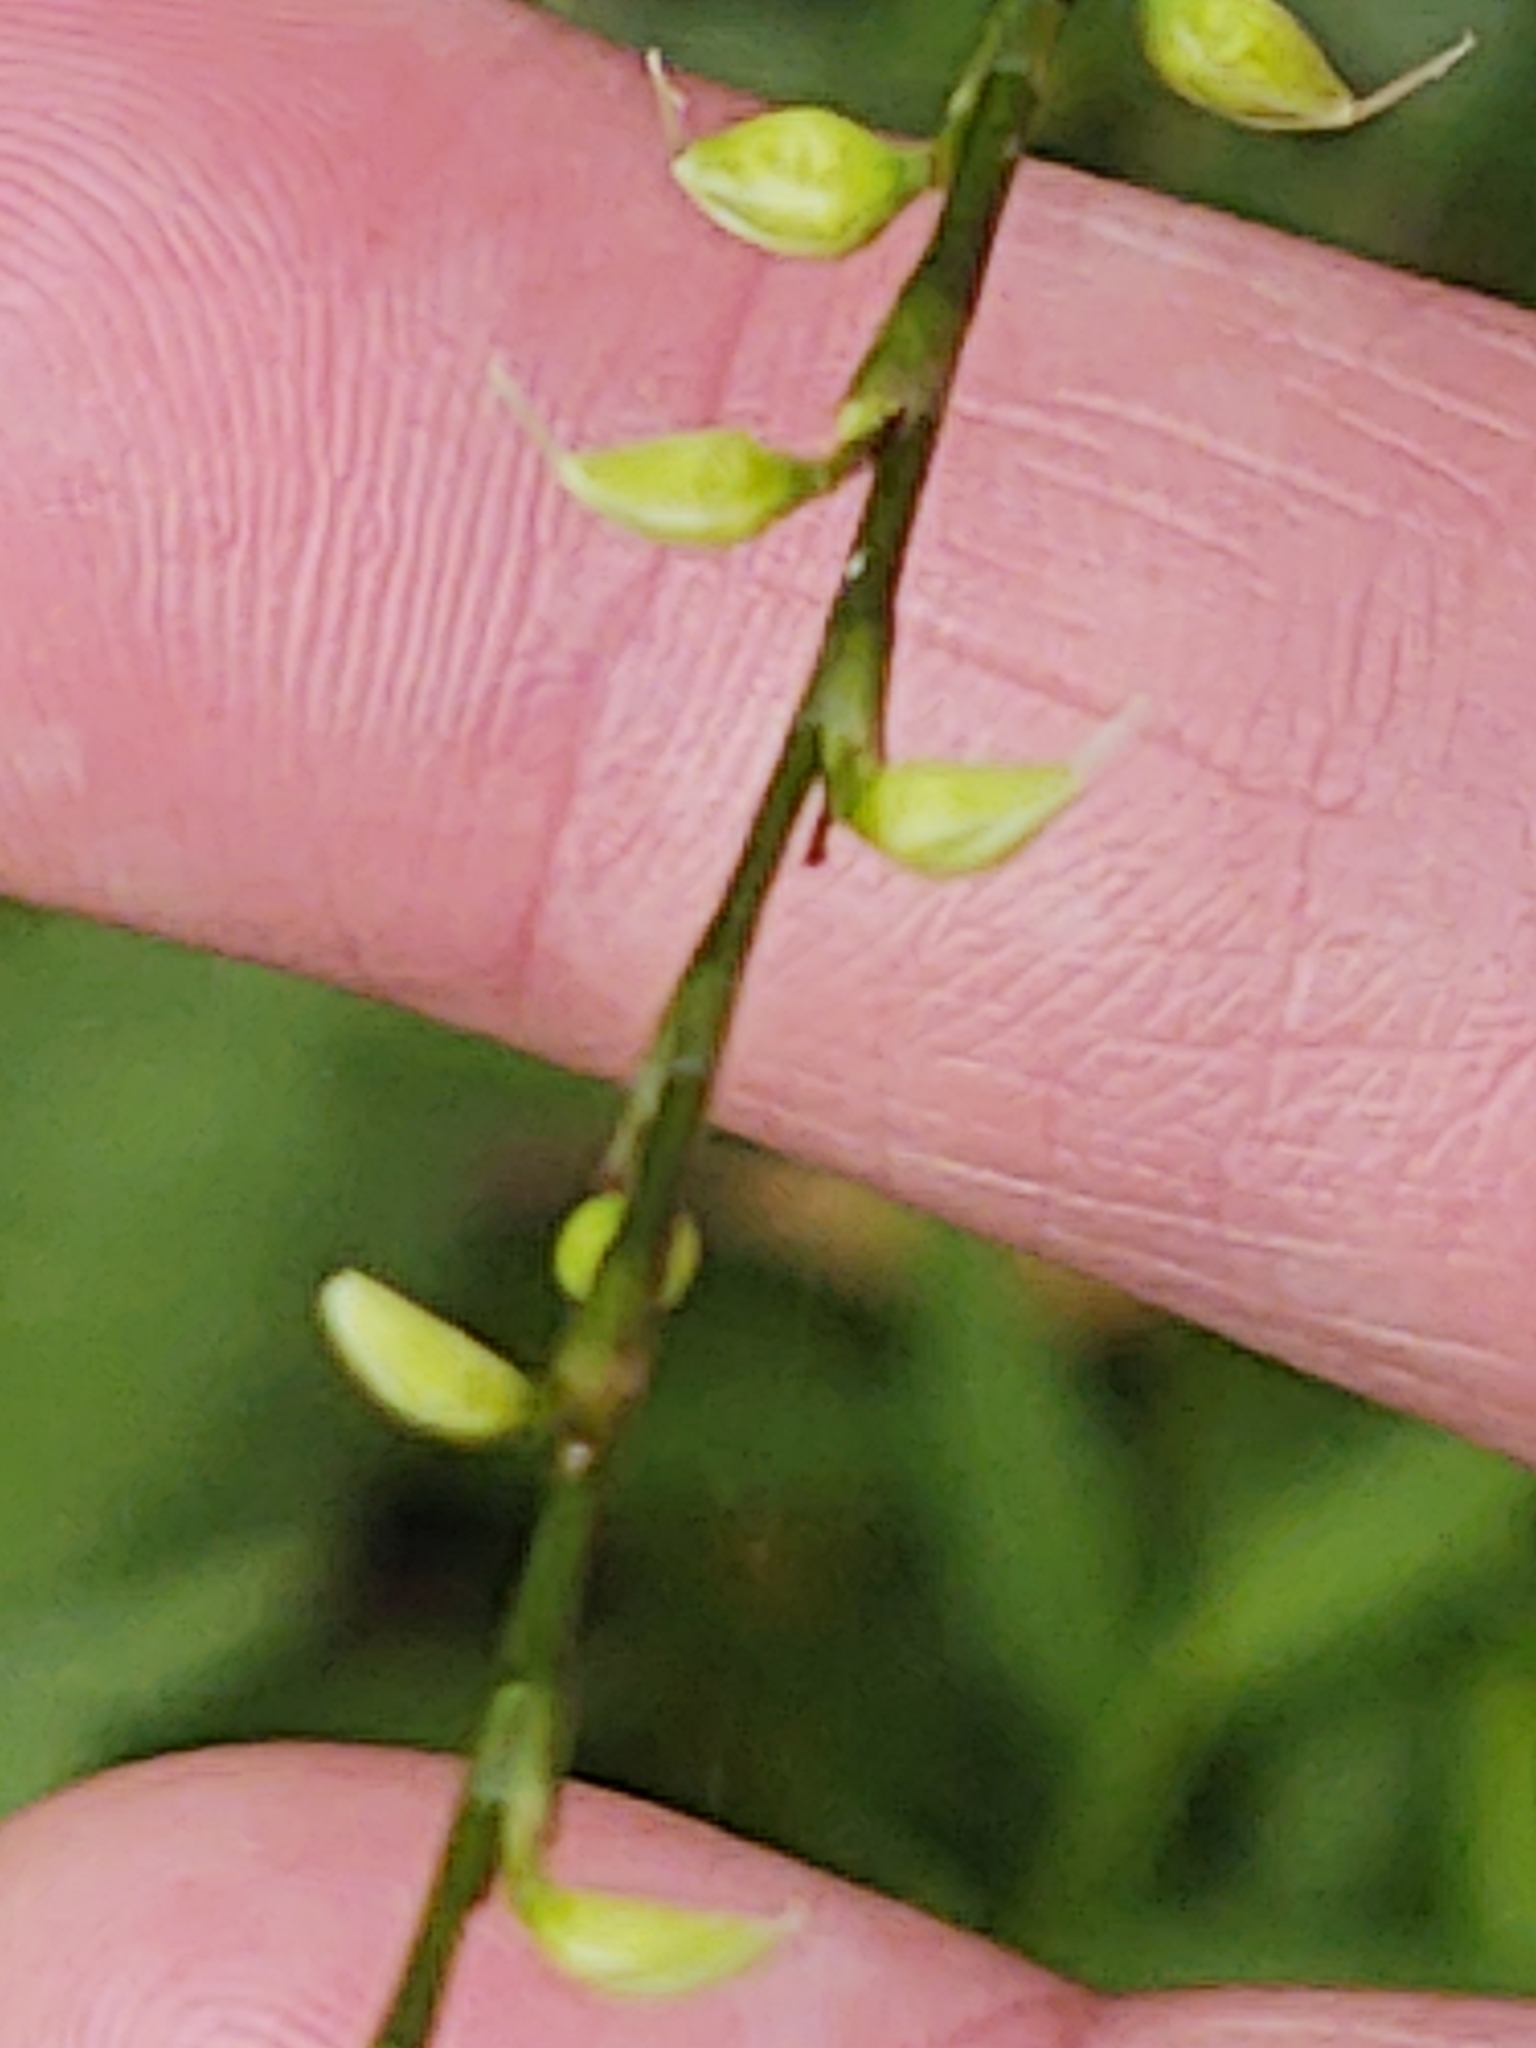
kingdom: Plantae
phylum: Tracheophyta
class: Magnoliopsida
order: Caryophyllales
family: Polygonaceae
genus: Persicaria
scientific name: Persicaria virginiana
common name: Jumpseed
